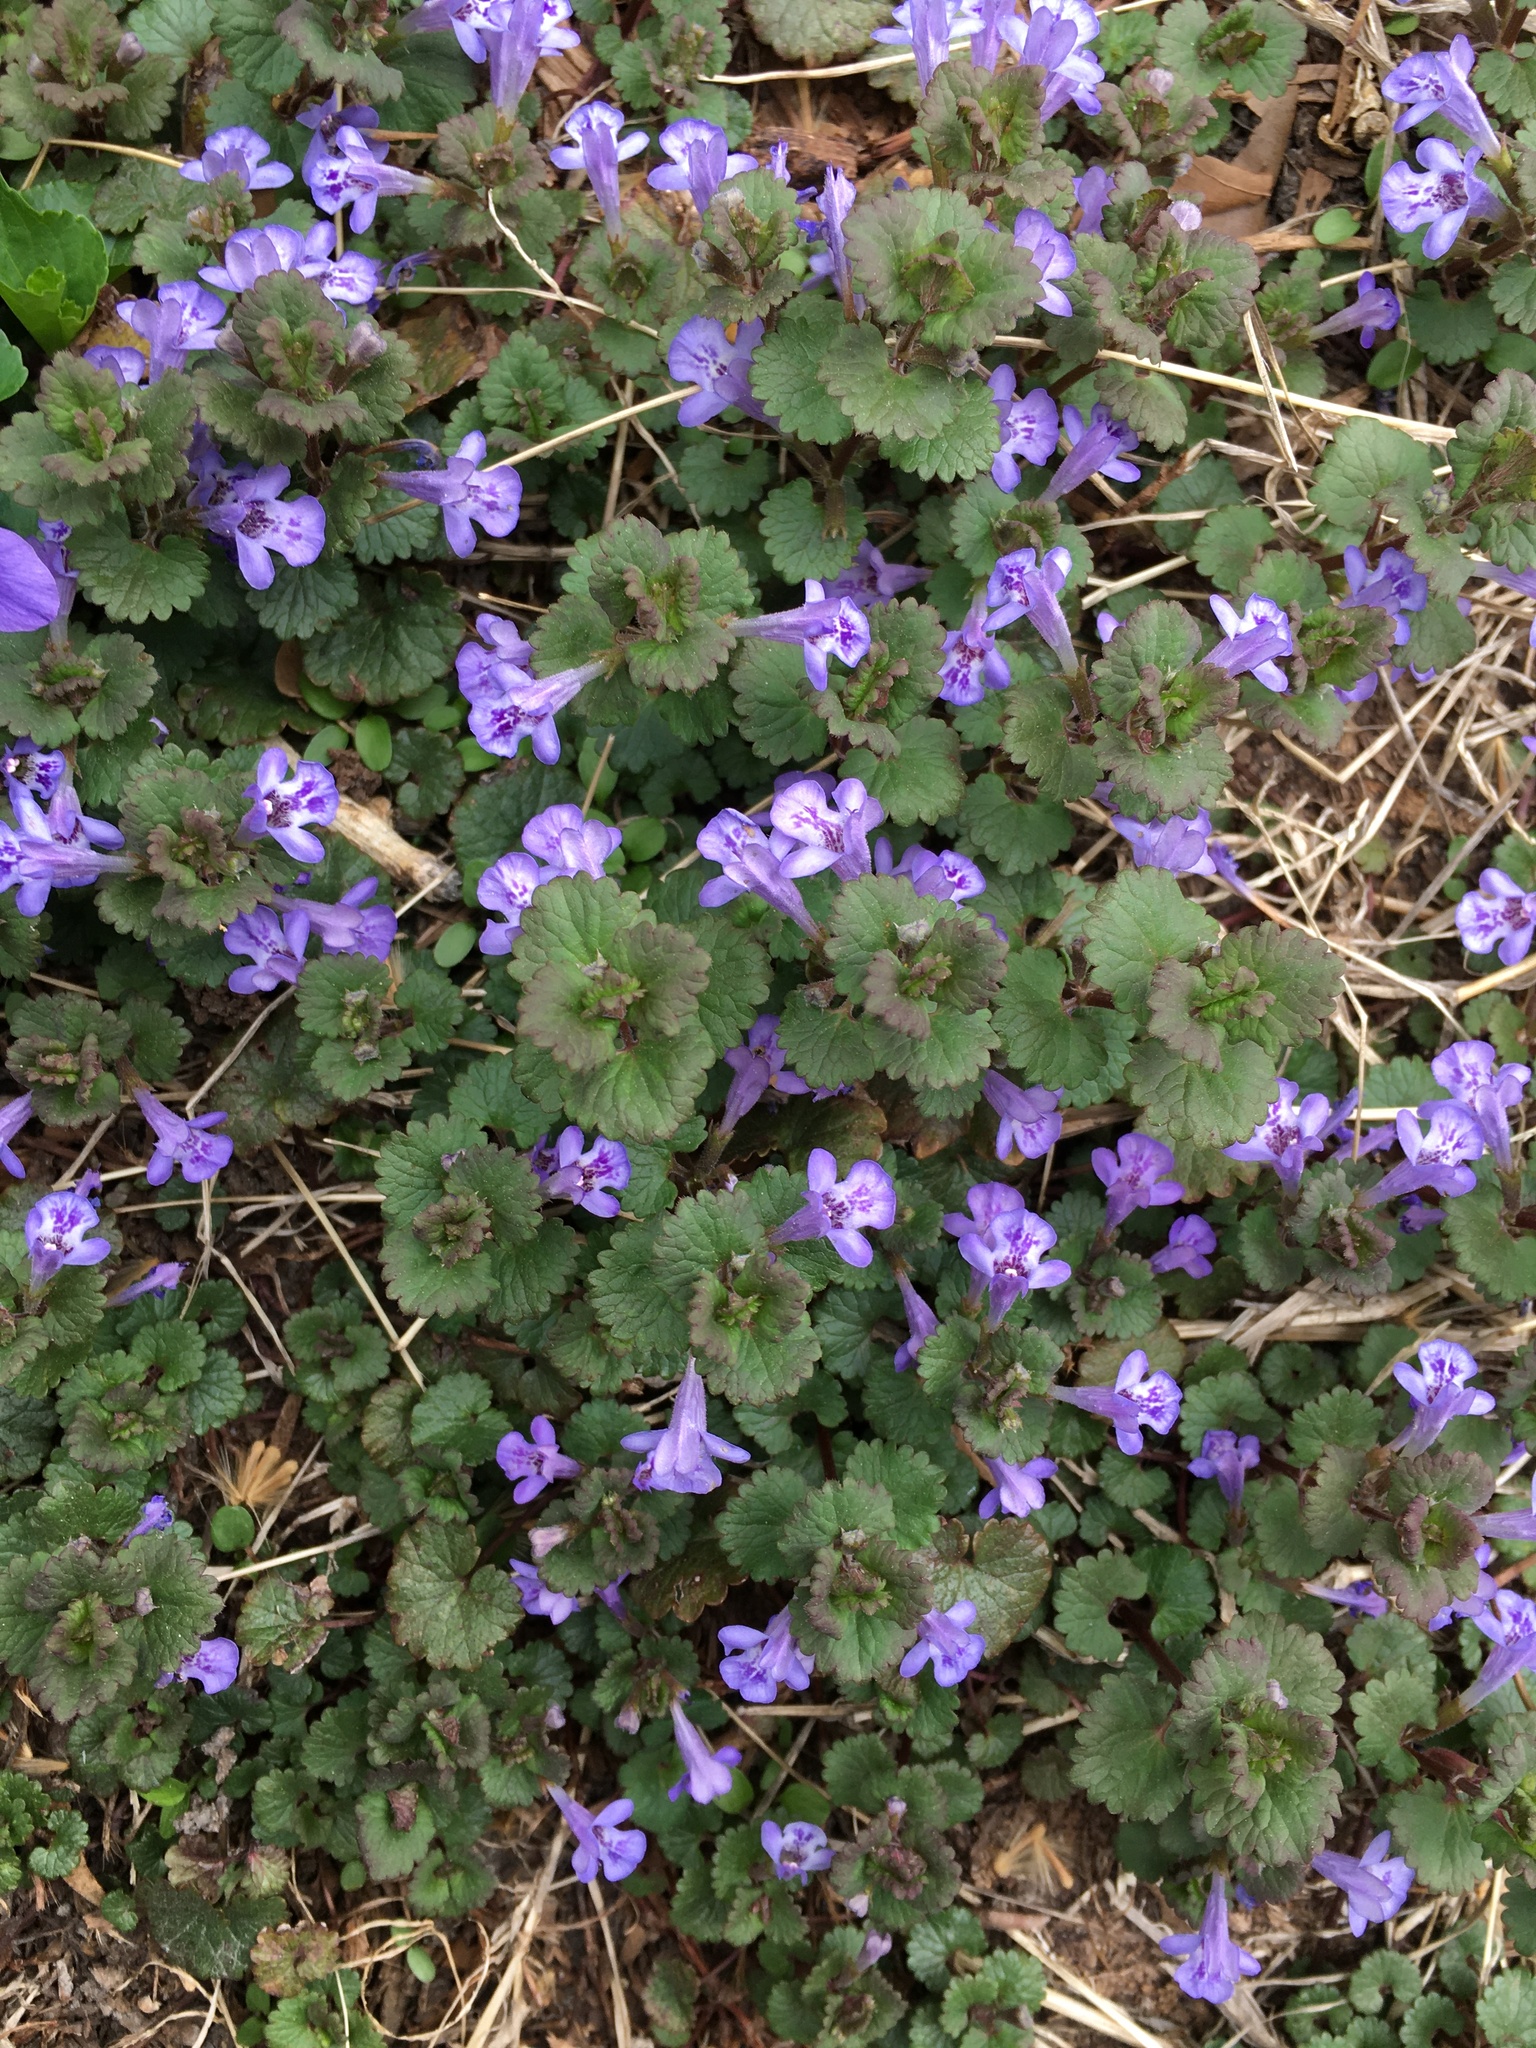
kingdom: Plantae
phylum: Tracheophyta
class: Magnoliopsida
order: Lamiales
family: Lamiaceae
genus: Glechoma
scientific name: Glechoma hederacea
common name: Ground ivy
